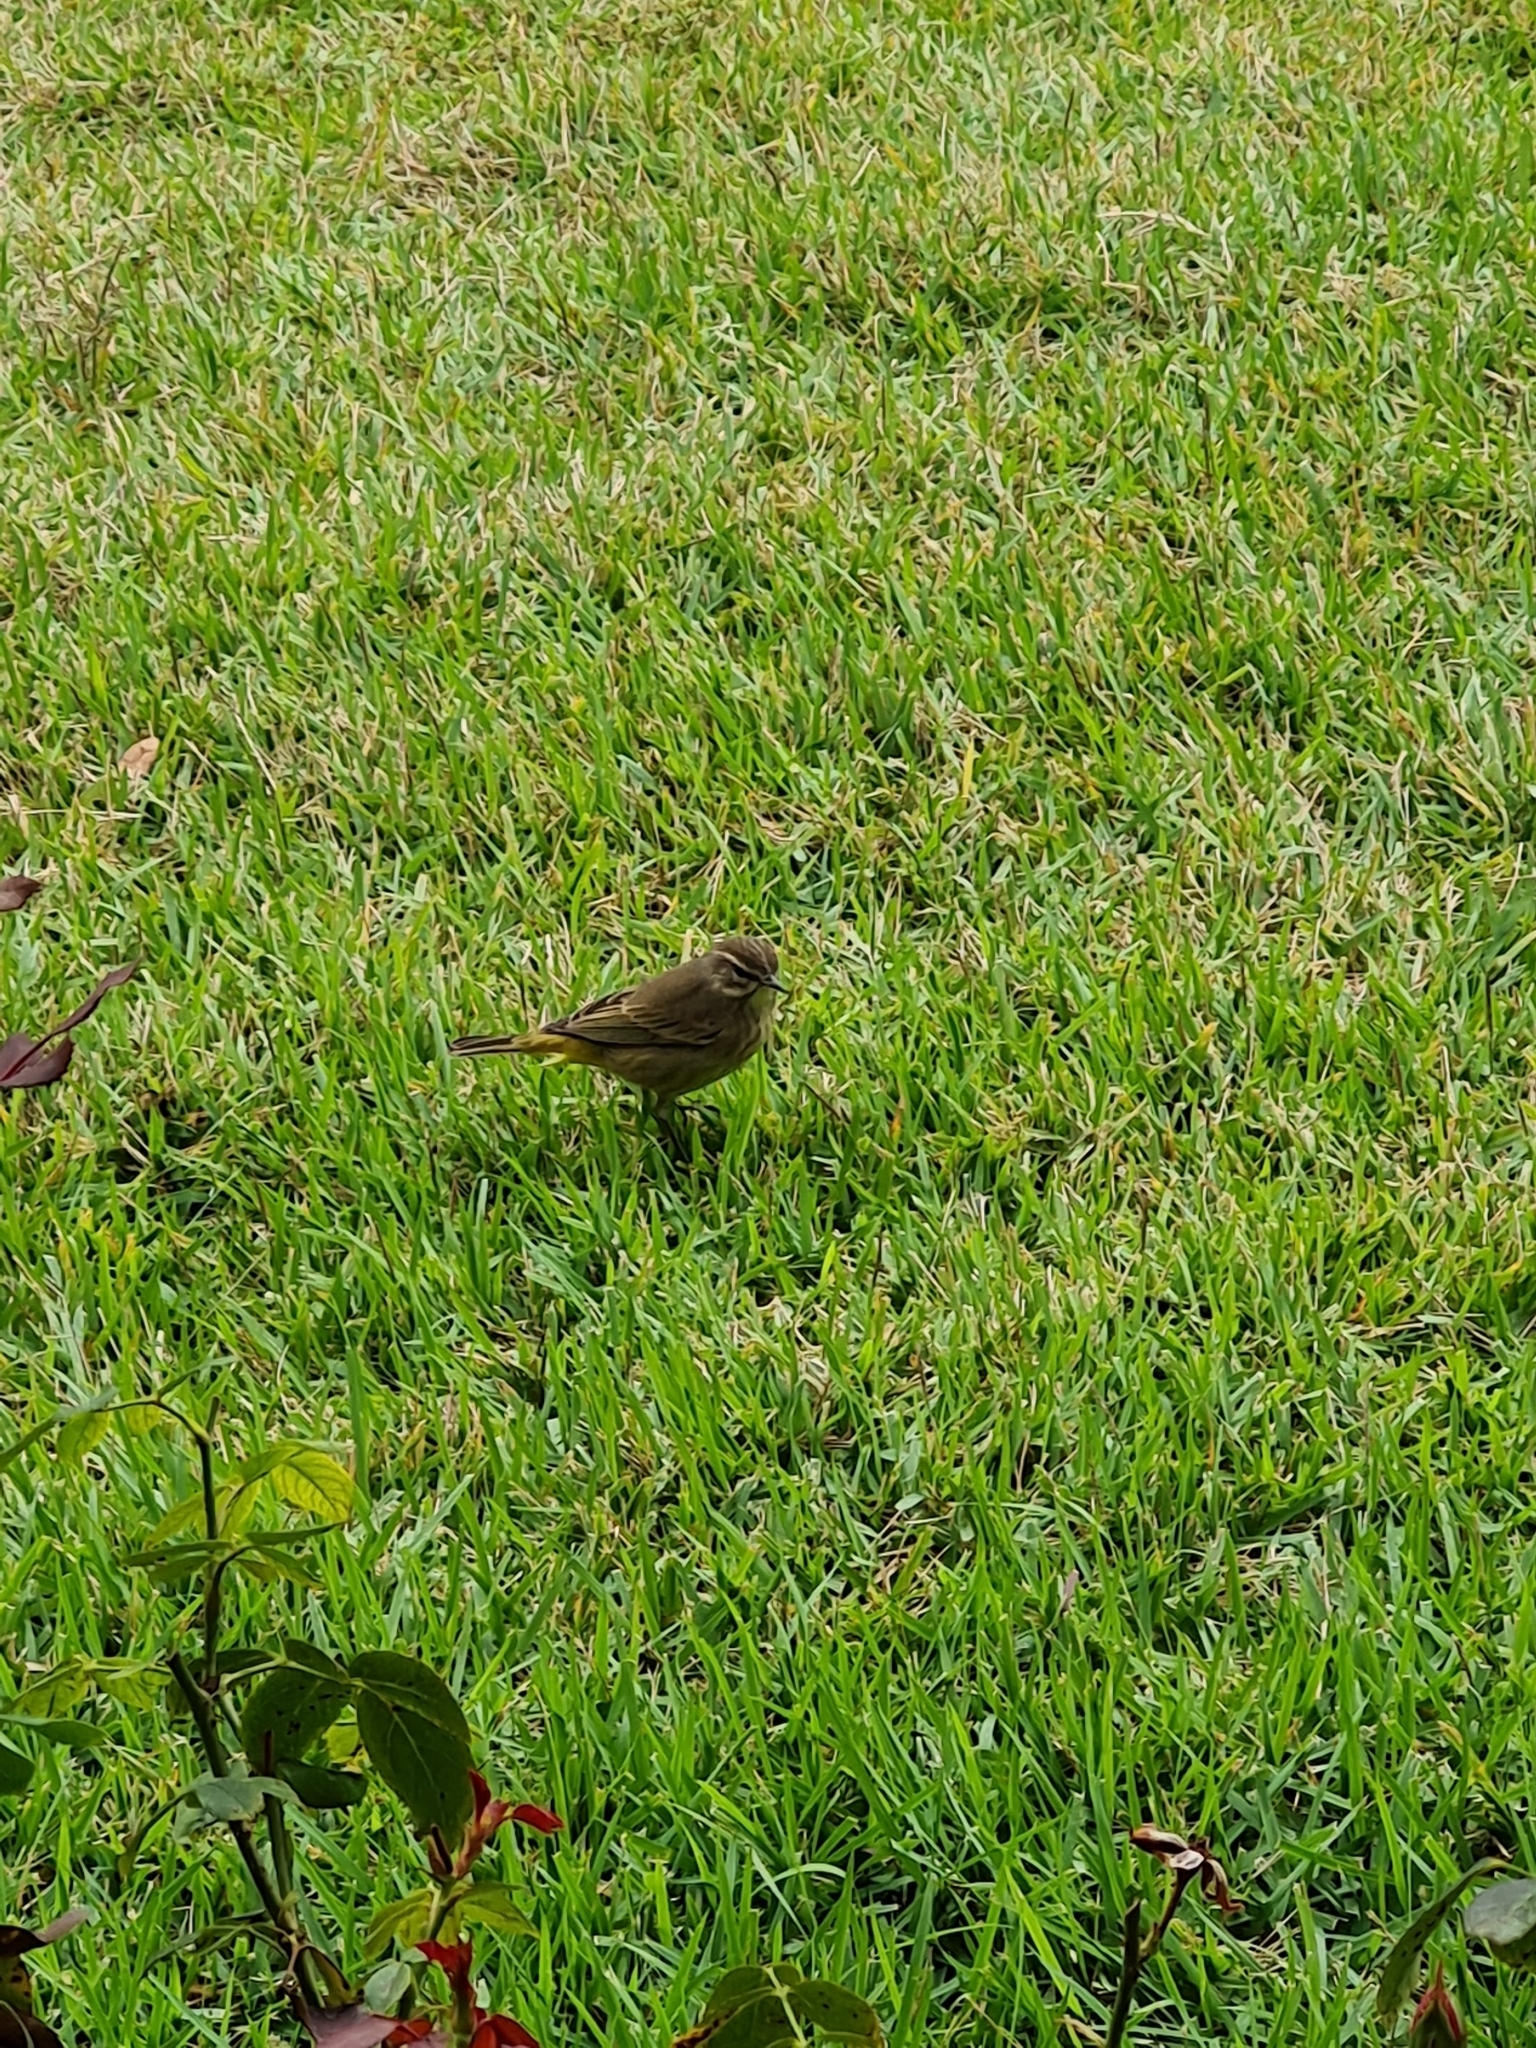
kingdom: Animalia
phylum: Chordata
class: Aves
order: Passeriformes
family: Parulidae
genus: Setophaga
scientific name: Setophaga palmarum
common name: Palm warbler
